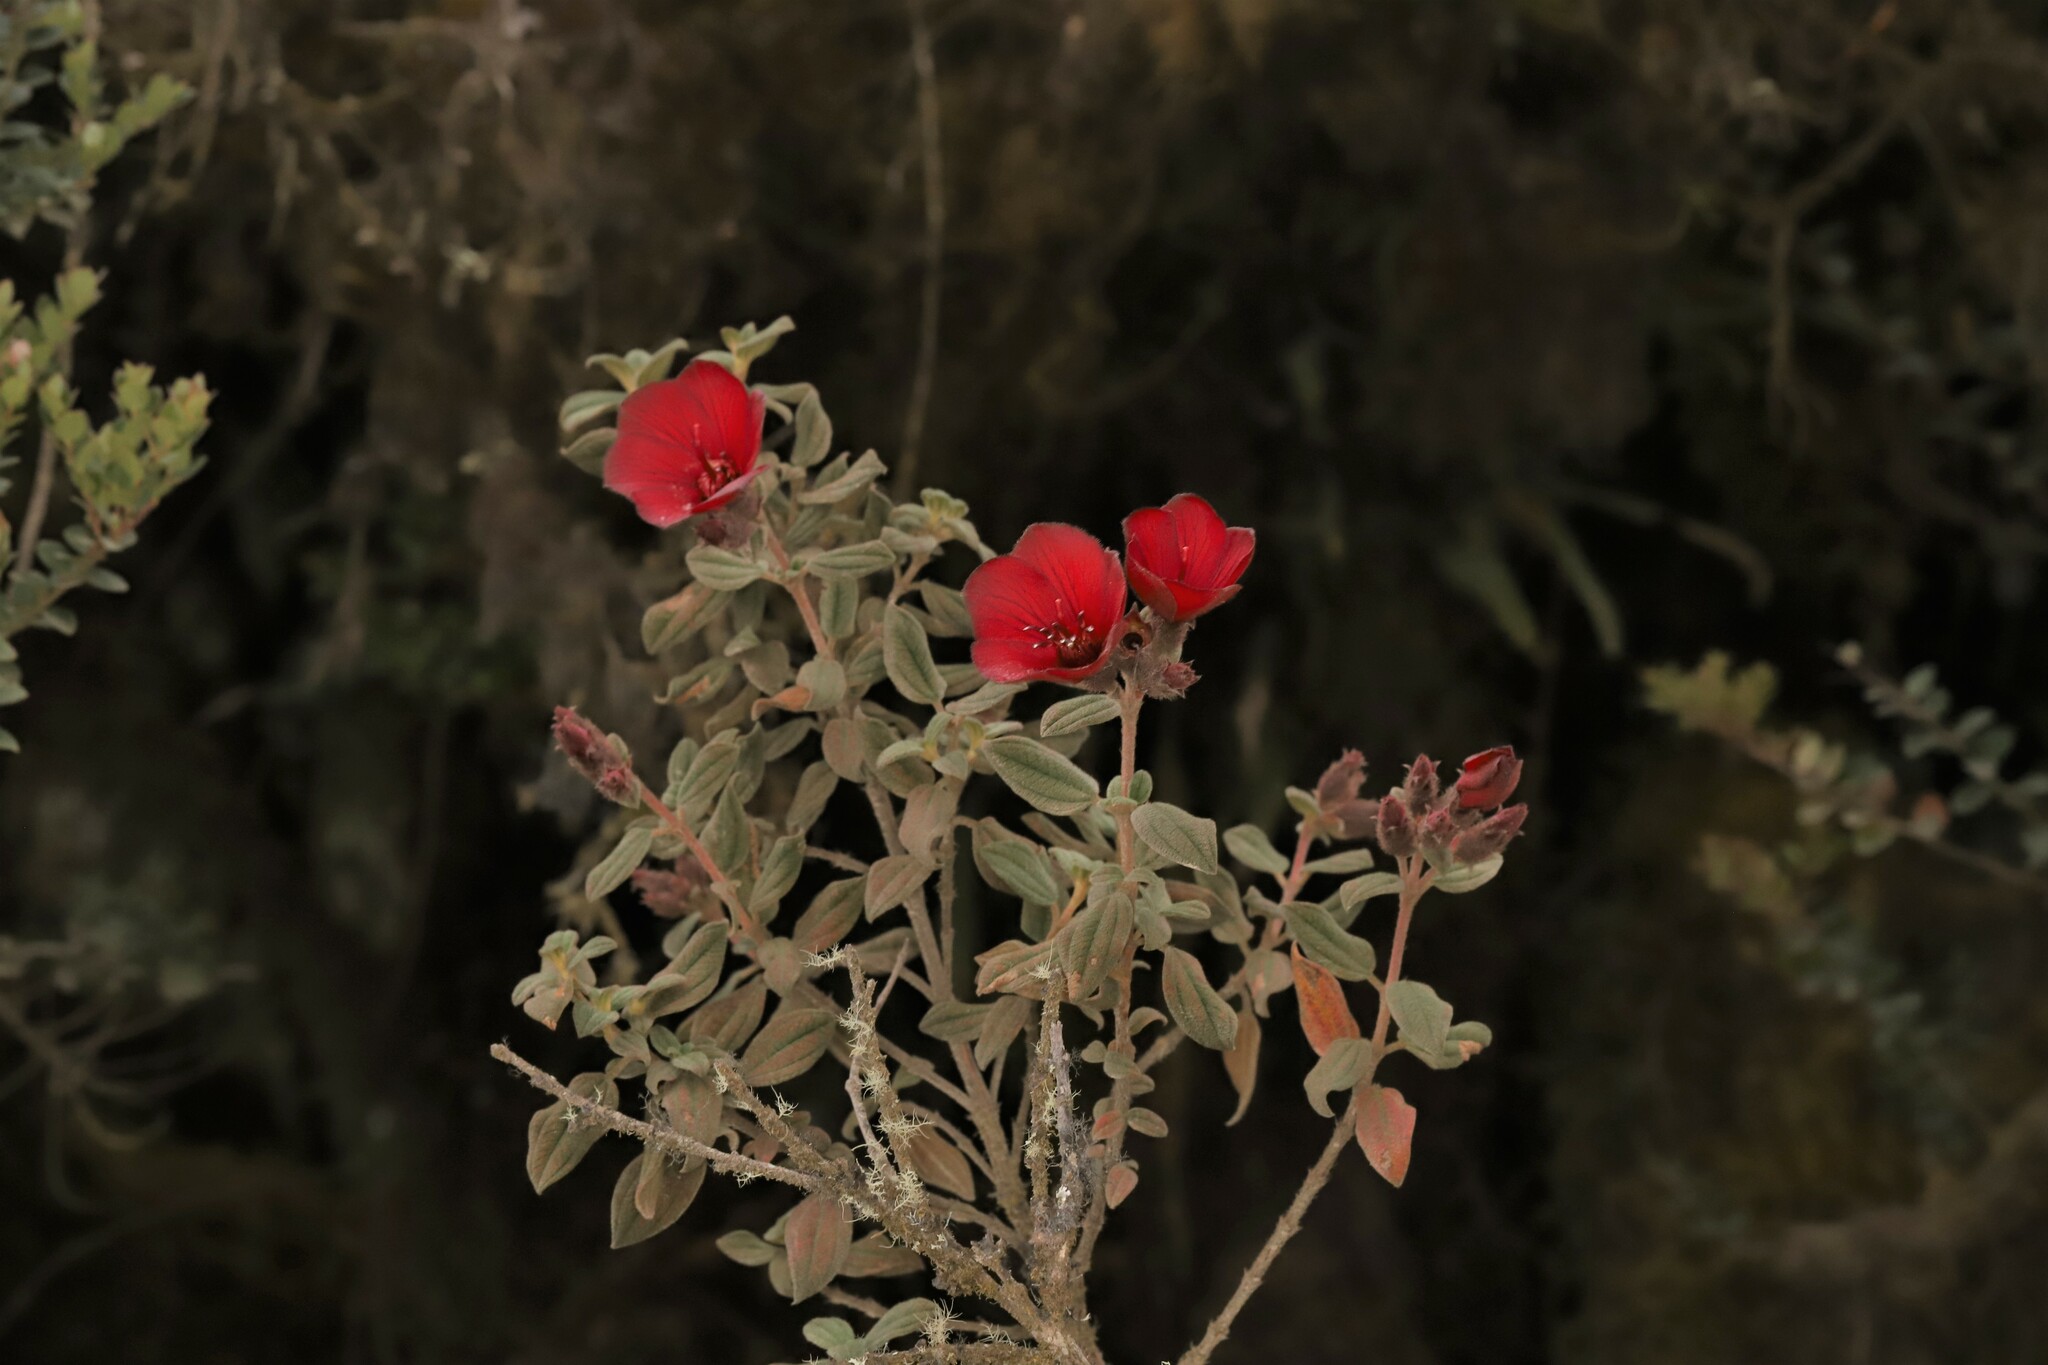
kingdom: Plantae
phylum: Tracheophyta
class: Magnoliopsida
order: Myrtales
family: Melastomataceae
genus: Chaetogastra
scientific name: Chaetogastra grossa
